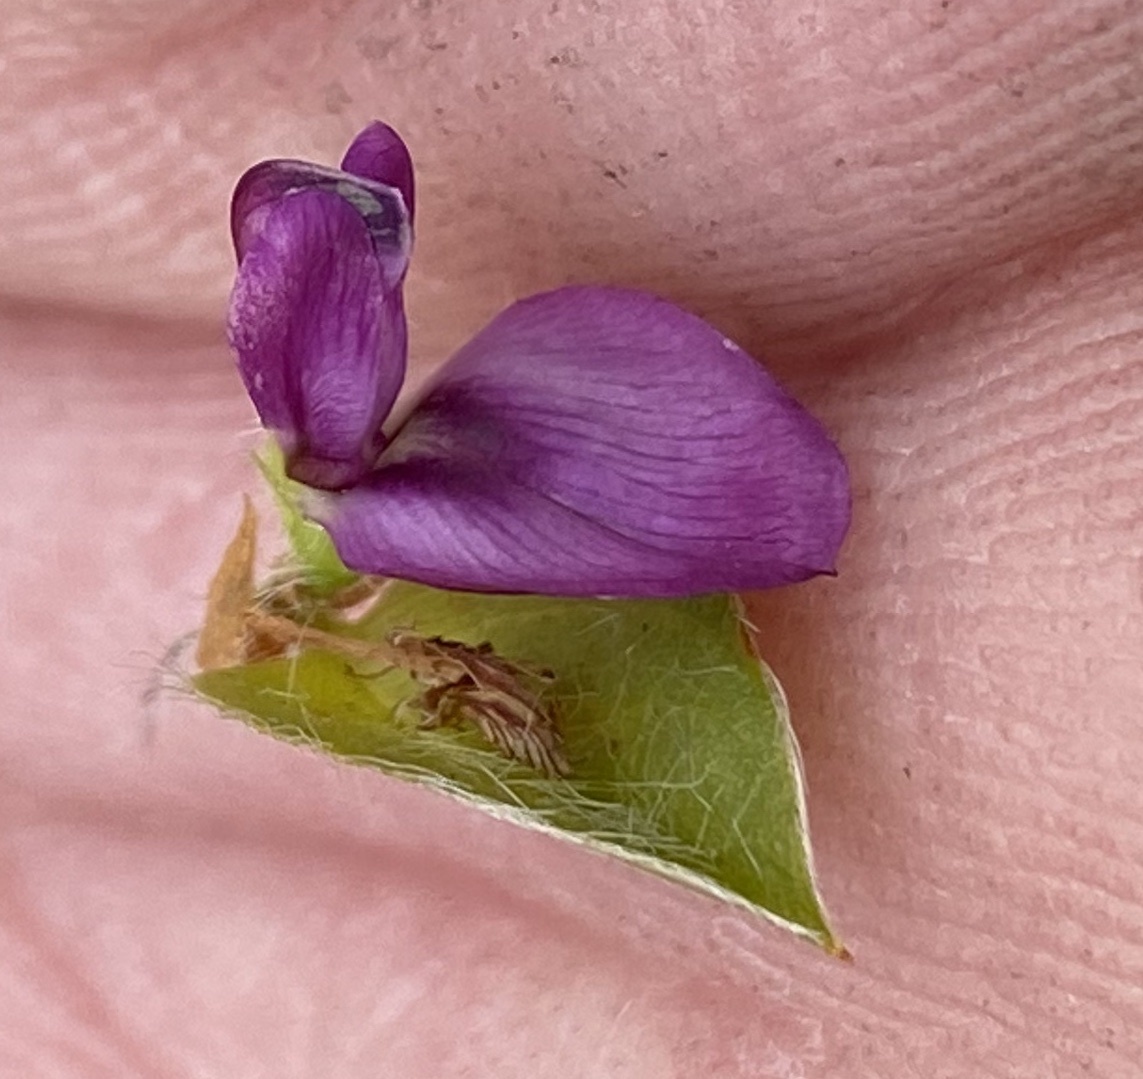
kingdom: Plantae
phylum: Tracheophyta
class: Magnoliopsida
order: Fabales
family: Fabaceae
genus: Psoralea
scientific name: Psoralea imbricata
